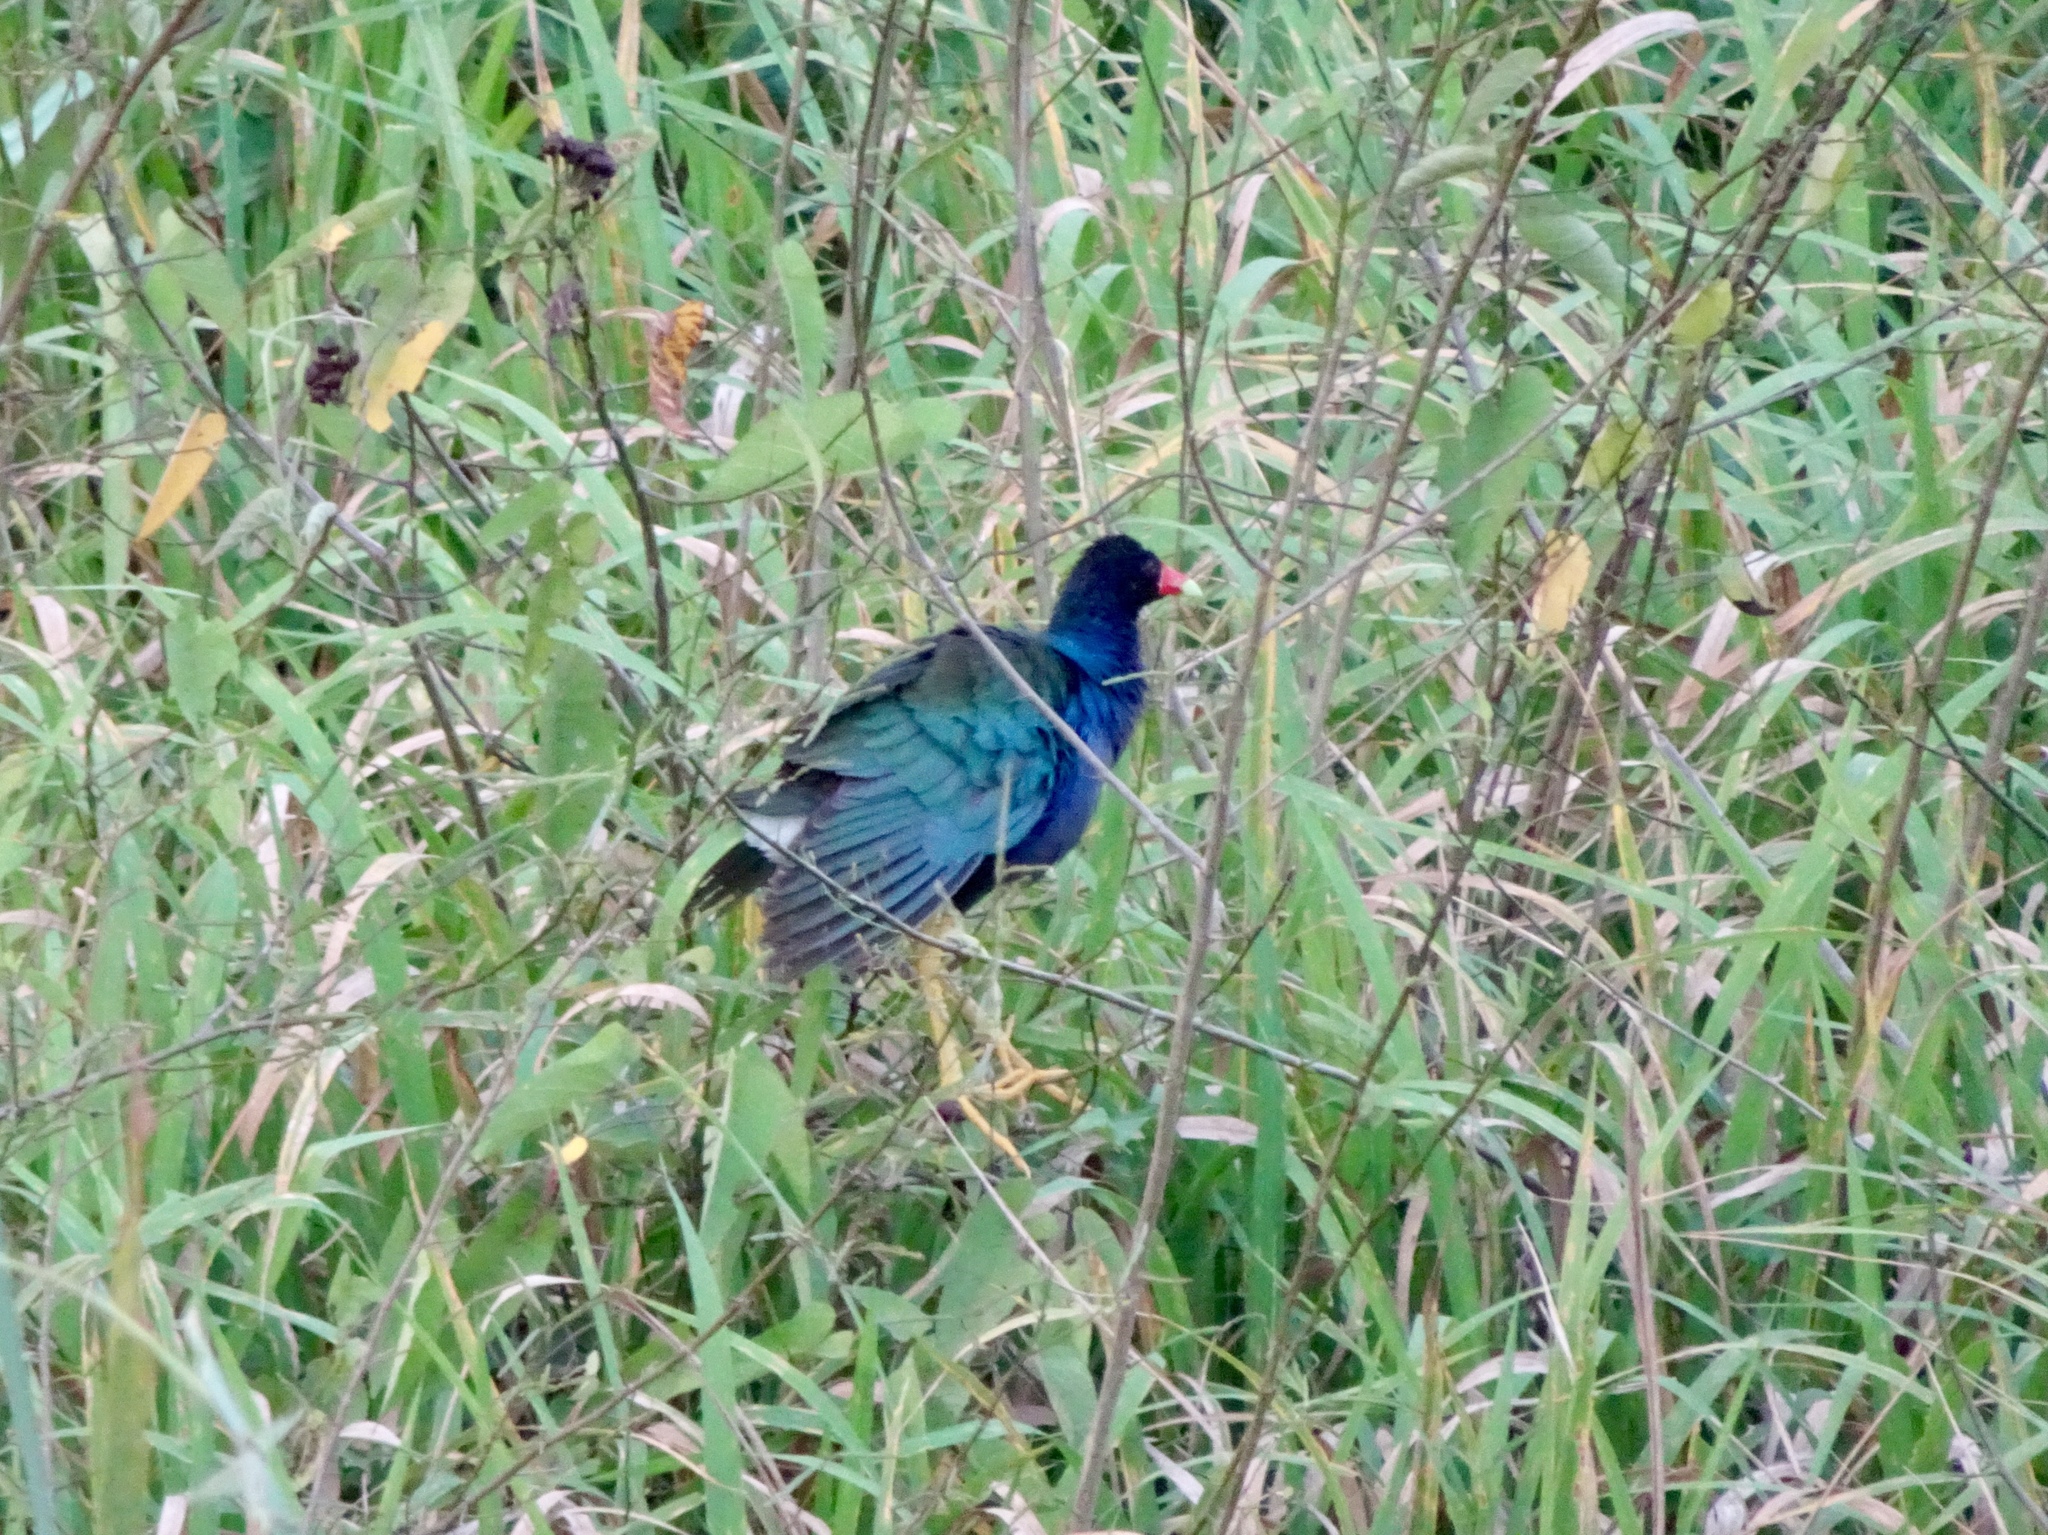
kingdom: Animalia
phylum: Chordata
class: Aves
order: Gruiformes
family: Rallidae
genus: Porphyrio
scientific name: Porphyrio martinica
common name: Purple gallinule
